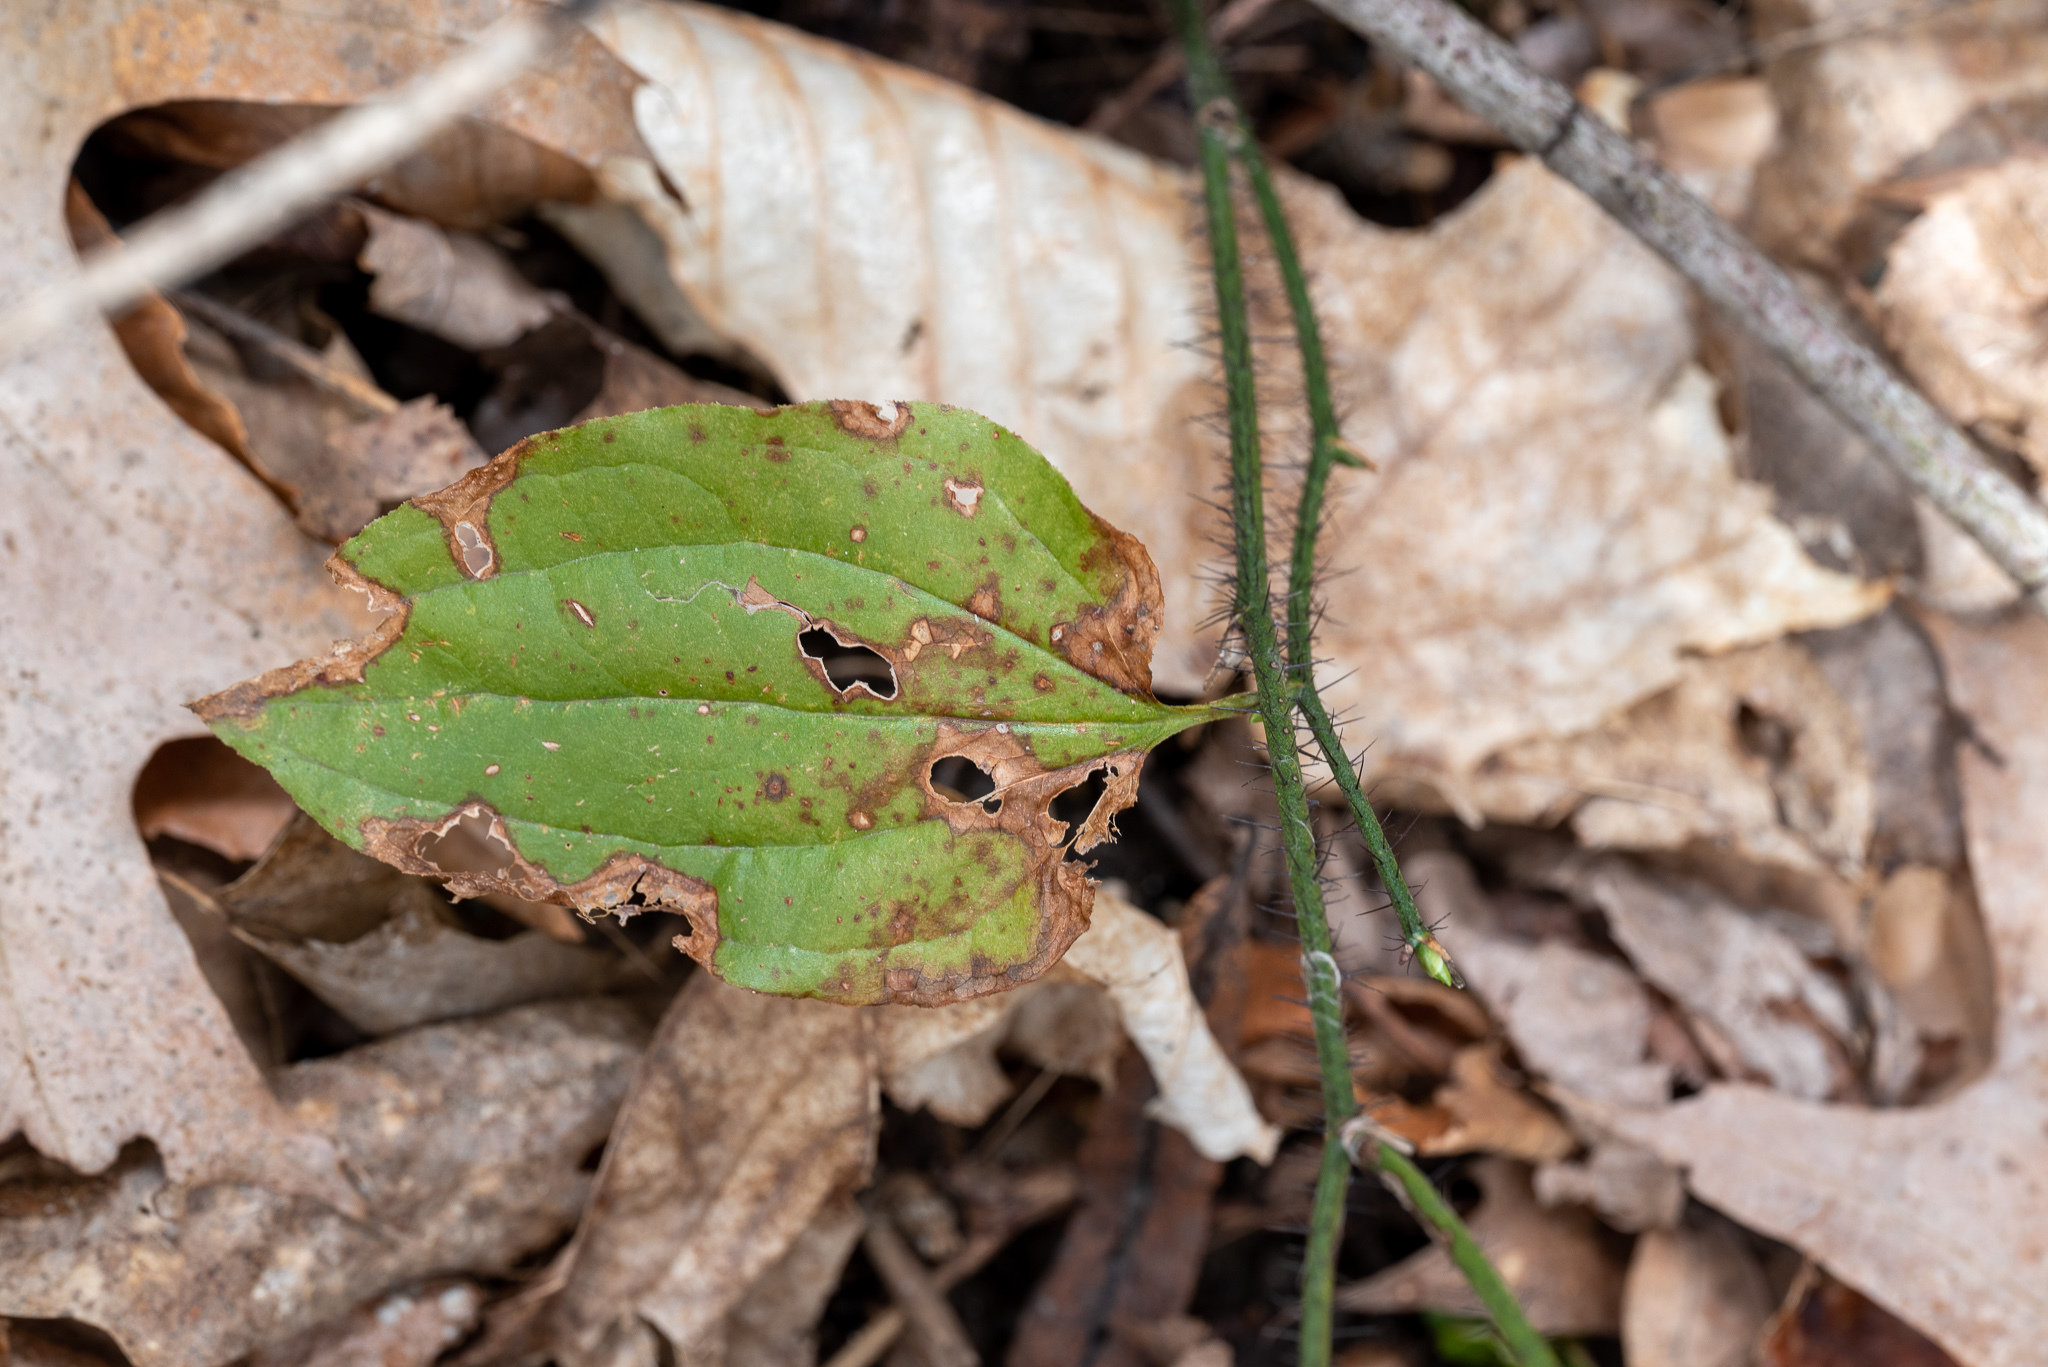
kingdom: Plantae
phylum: Tracheophyta
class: Liliopsida
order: Liliales
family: Smilacaceae
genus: Smilax
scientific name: Smilax tamnoides
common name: Hellfetter
